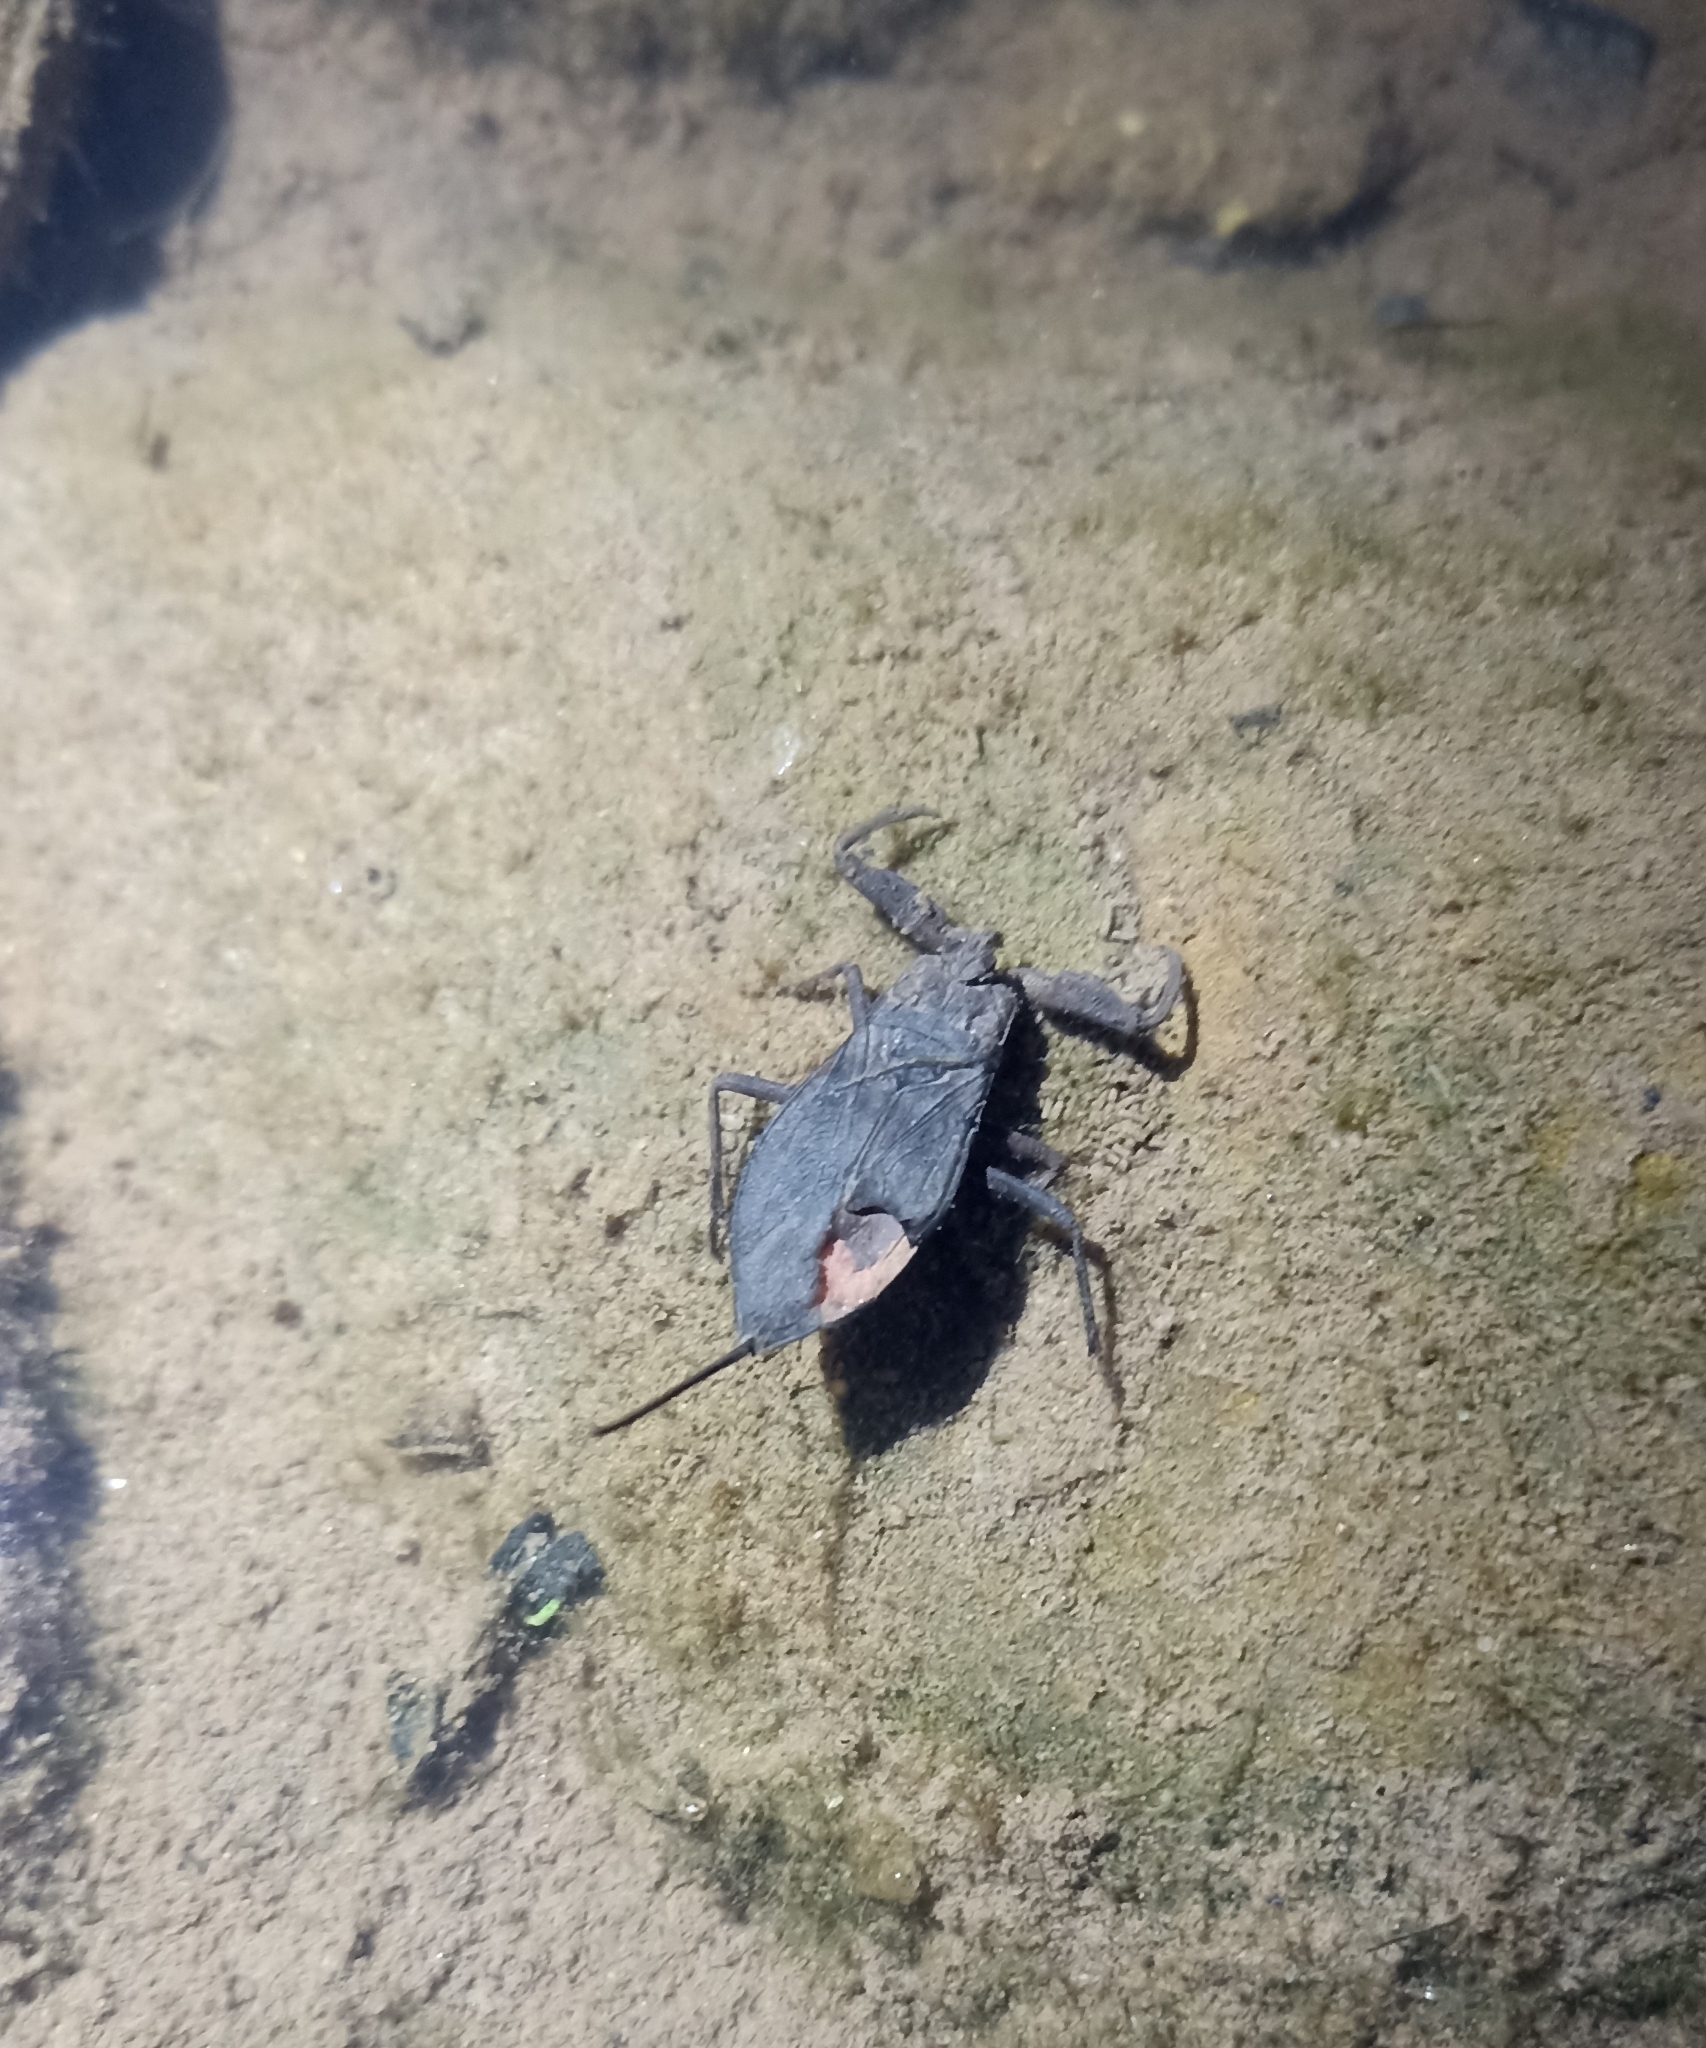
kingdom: Animalia
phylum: Arthropoda
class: Insecta
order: Hemiptera
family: Nepidae
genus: Nepa
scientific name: Nepa cinerea
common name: Water scorpion
